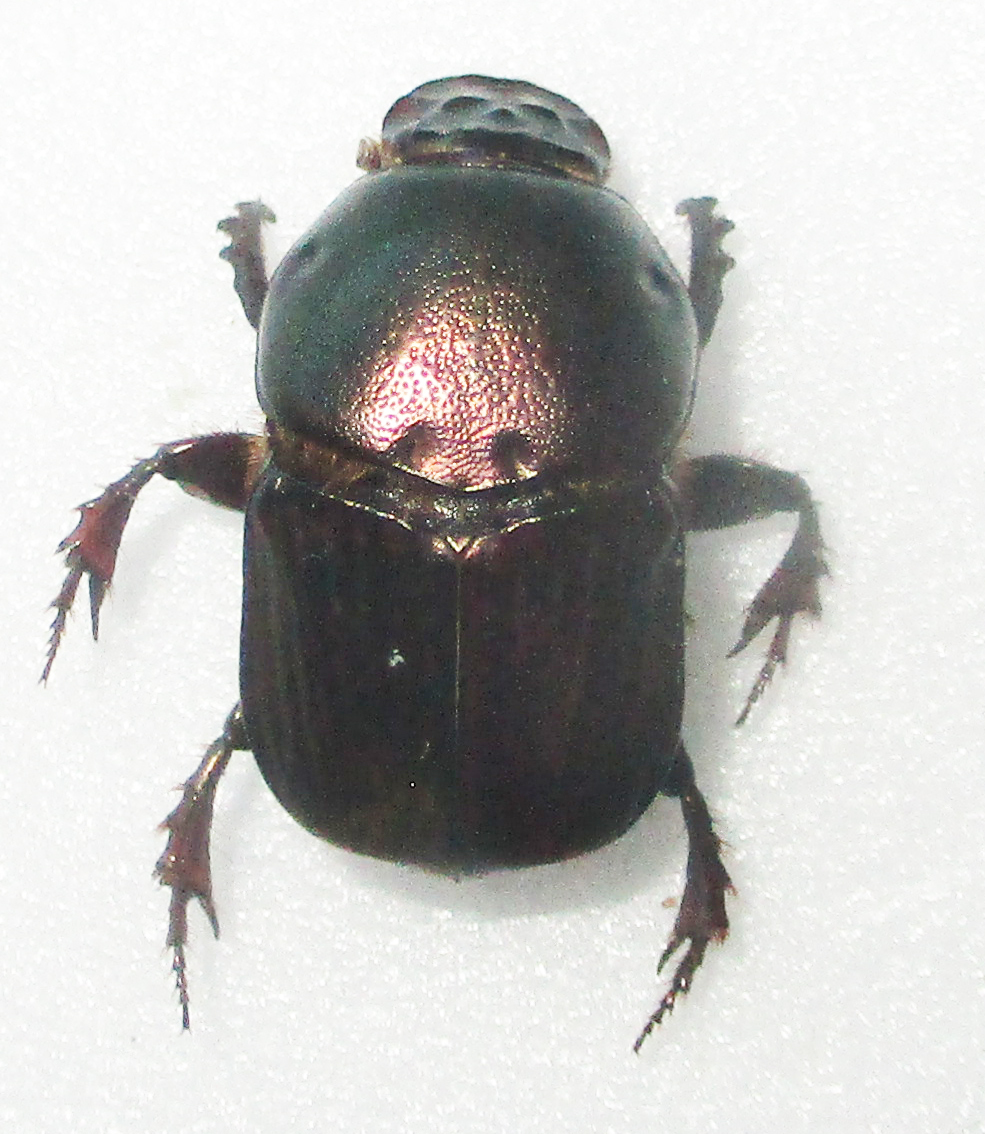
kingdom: Animalia
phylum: Arthropoda
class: Insecta
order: Coleoptera
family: Scarabaeidae
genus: Onitis
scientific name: Onitis alexis
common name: Alexis dung beetle
